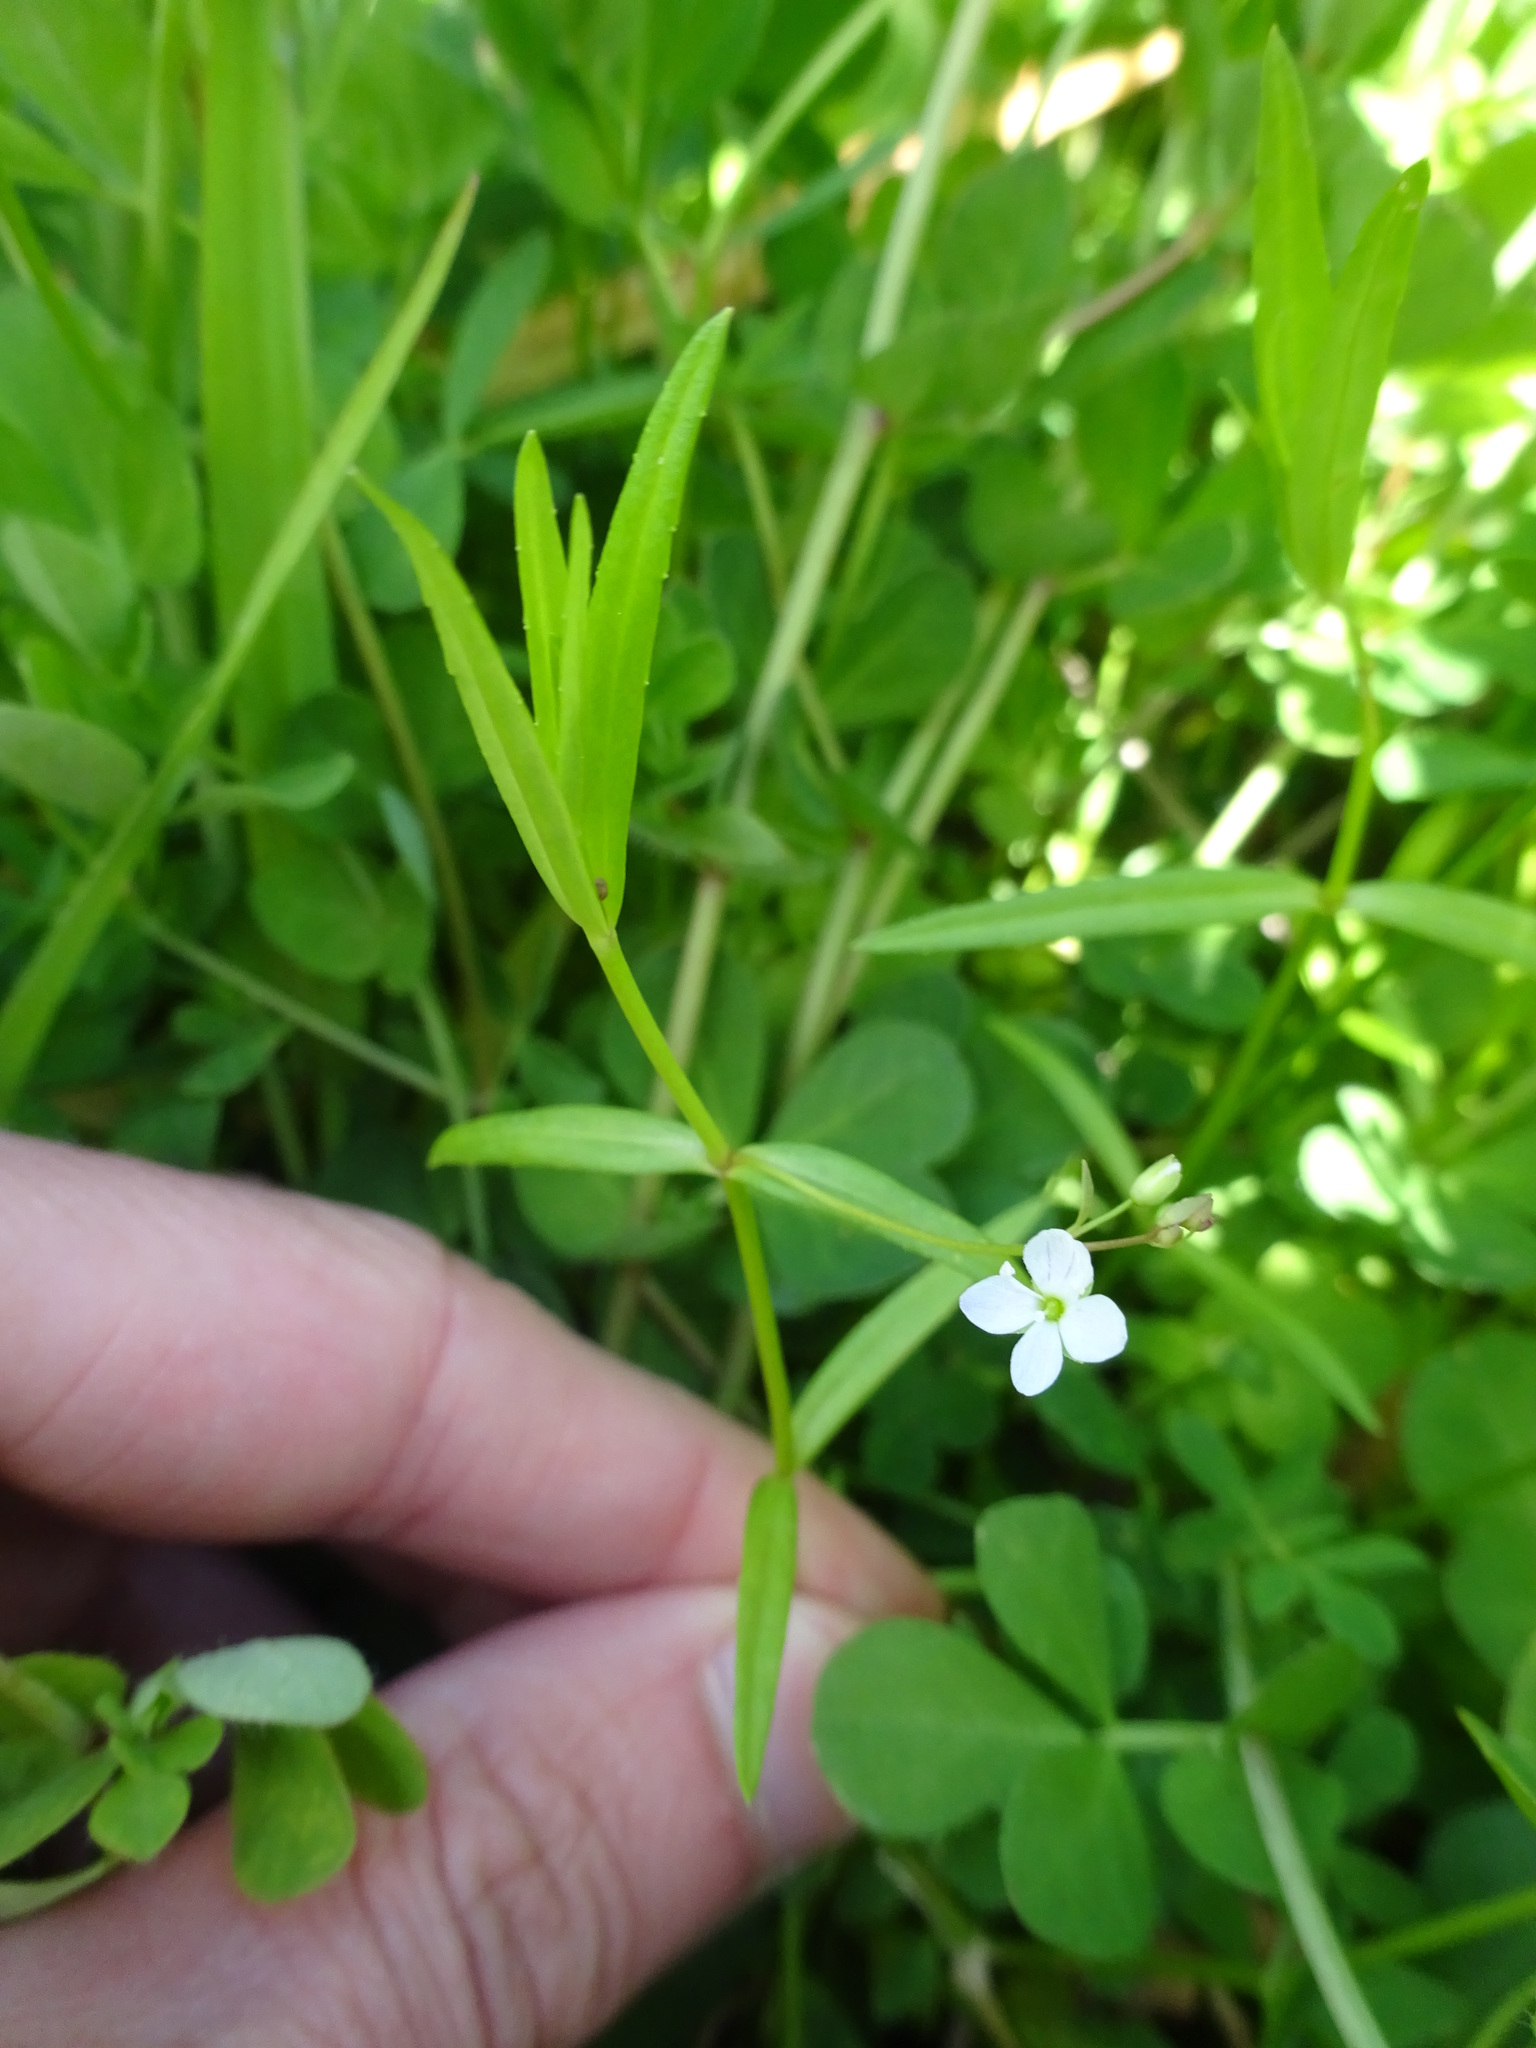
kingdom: Plantae
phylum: Tracheophyta
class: Magnoliopsida
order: Lamiales
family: Plantaginaceae
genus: Veronica
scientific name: Veronica scutellata
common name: Marsh speedwell
